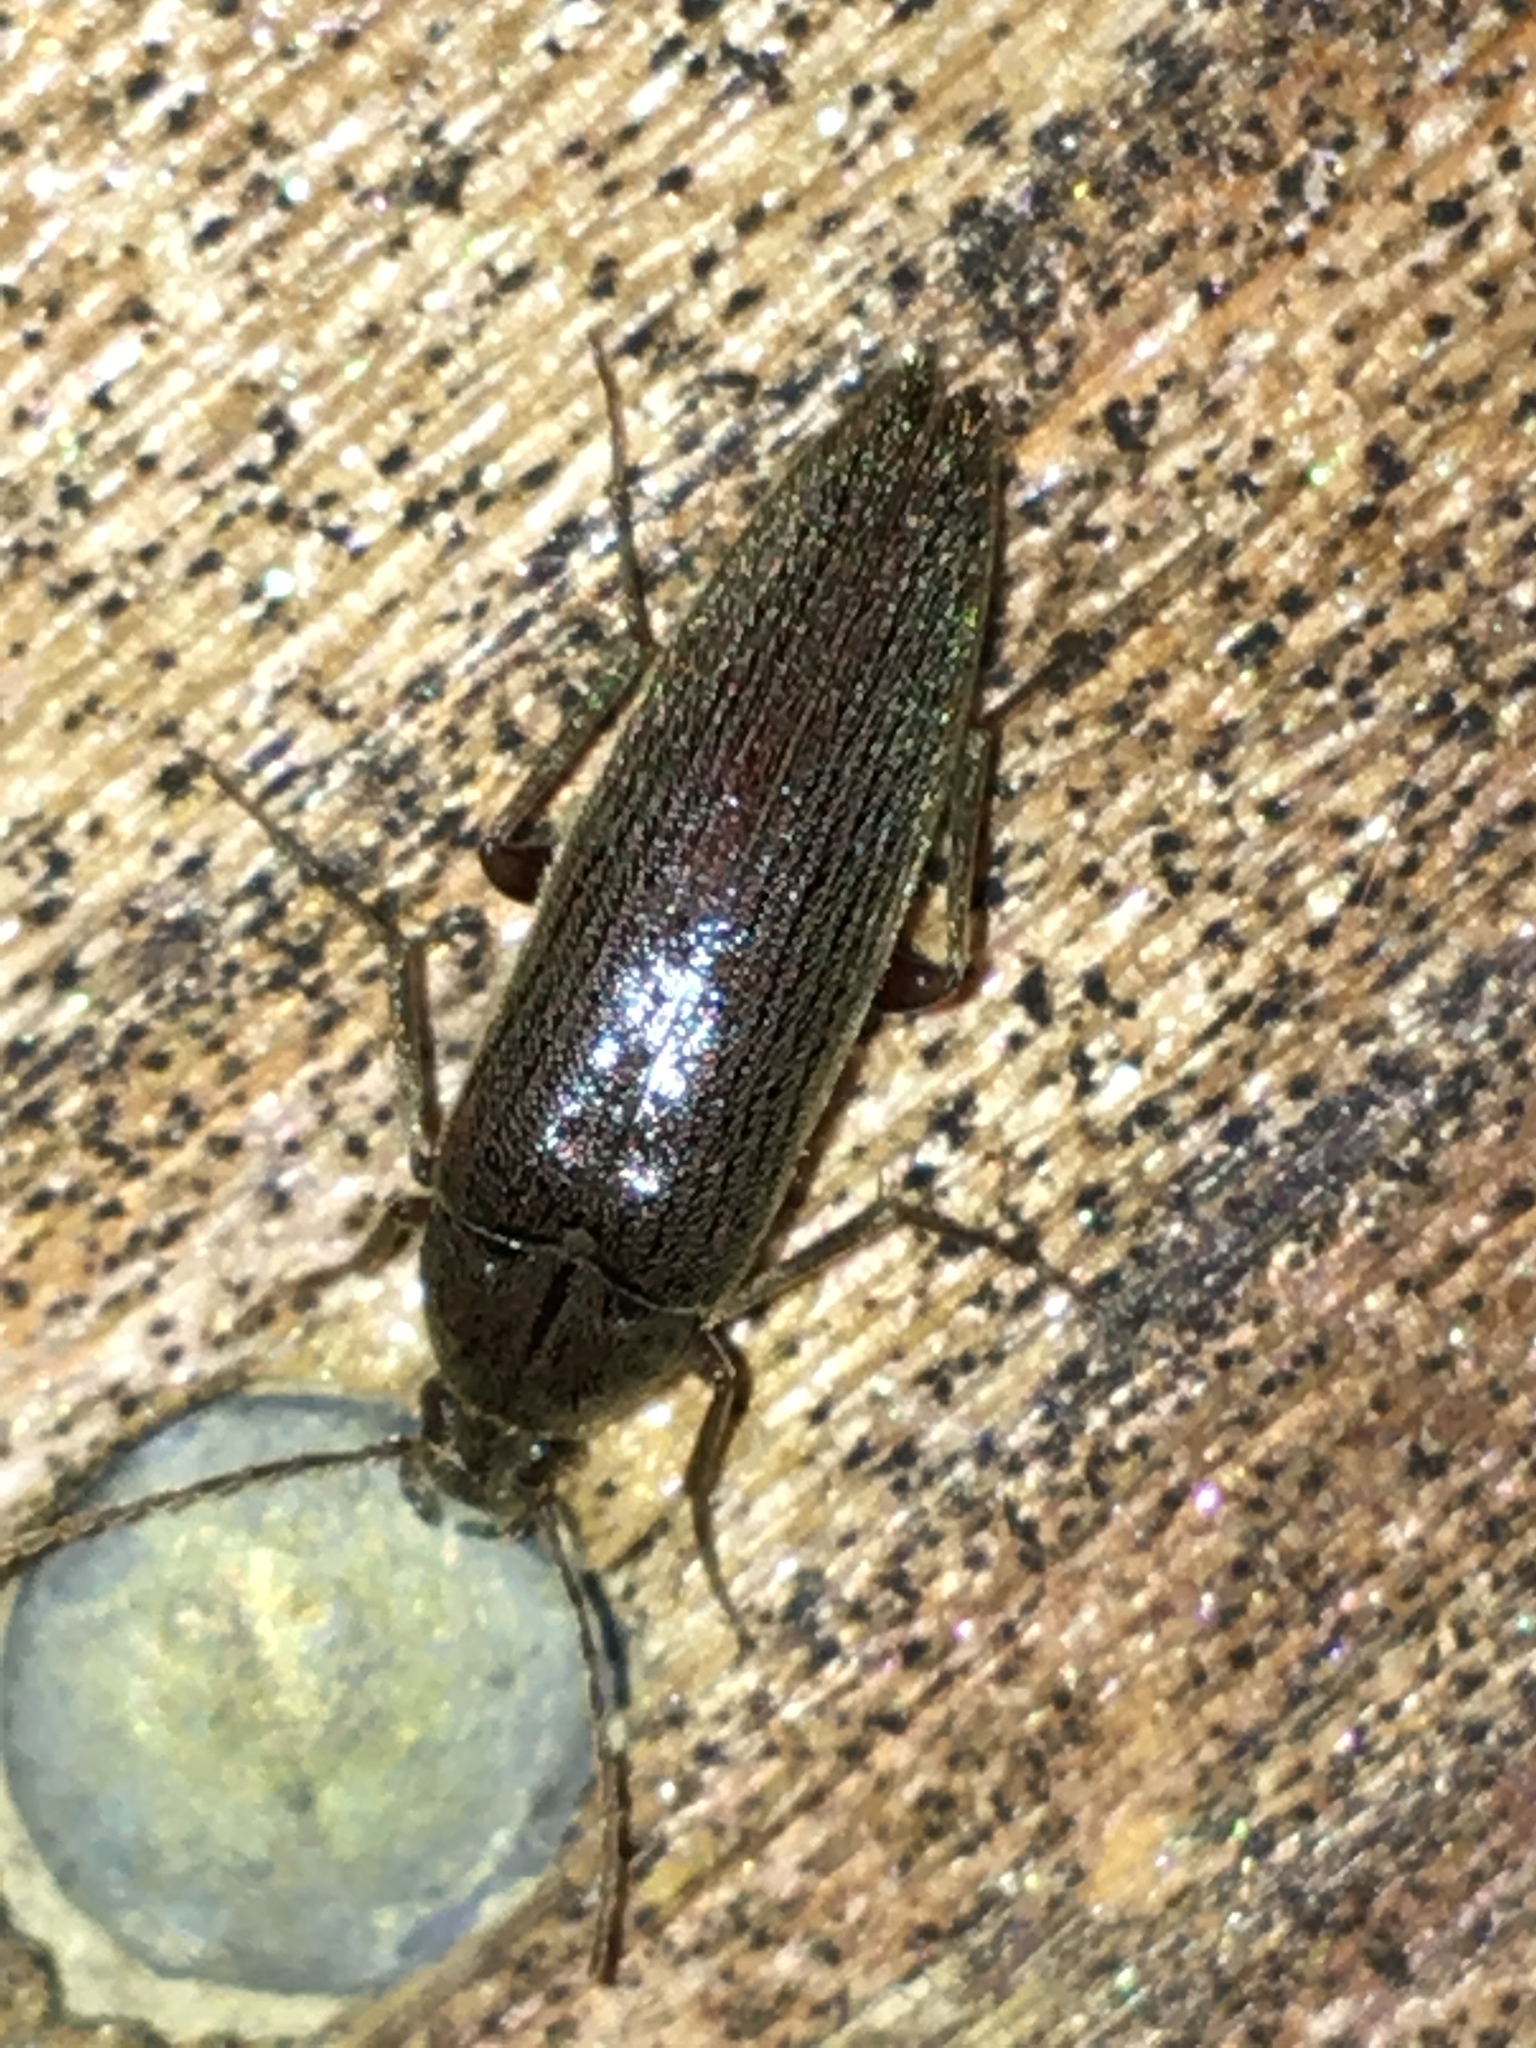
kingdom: Animalia
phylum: Arthropoda
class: Insecta
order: Coleoptera
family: Synchroidae
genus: Synchroa
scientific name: Synchroa punctata
